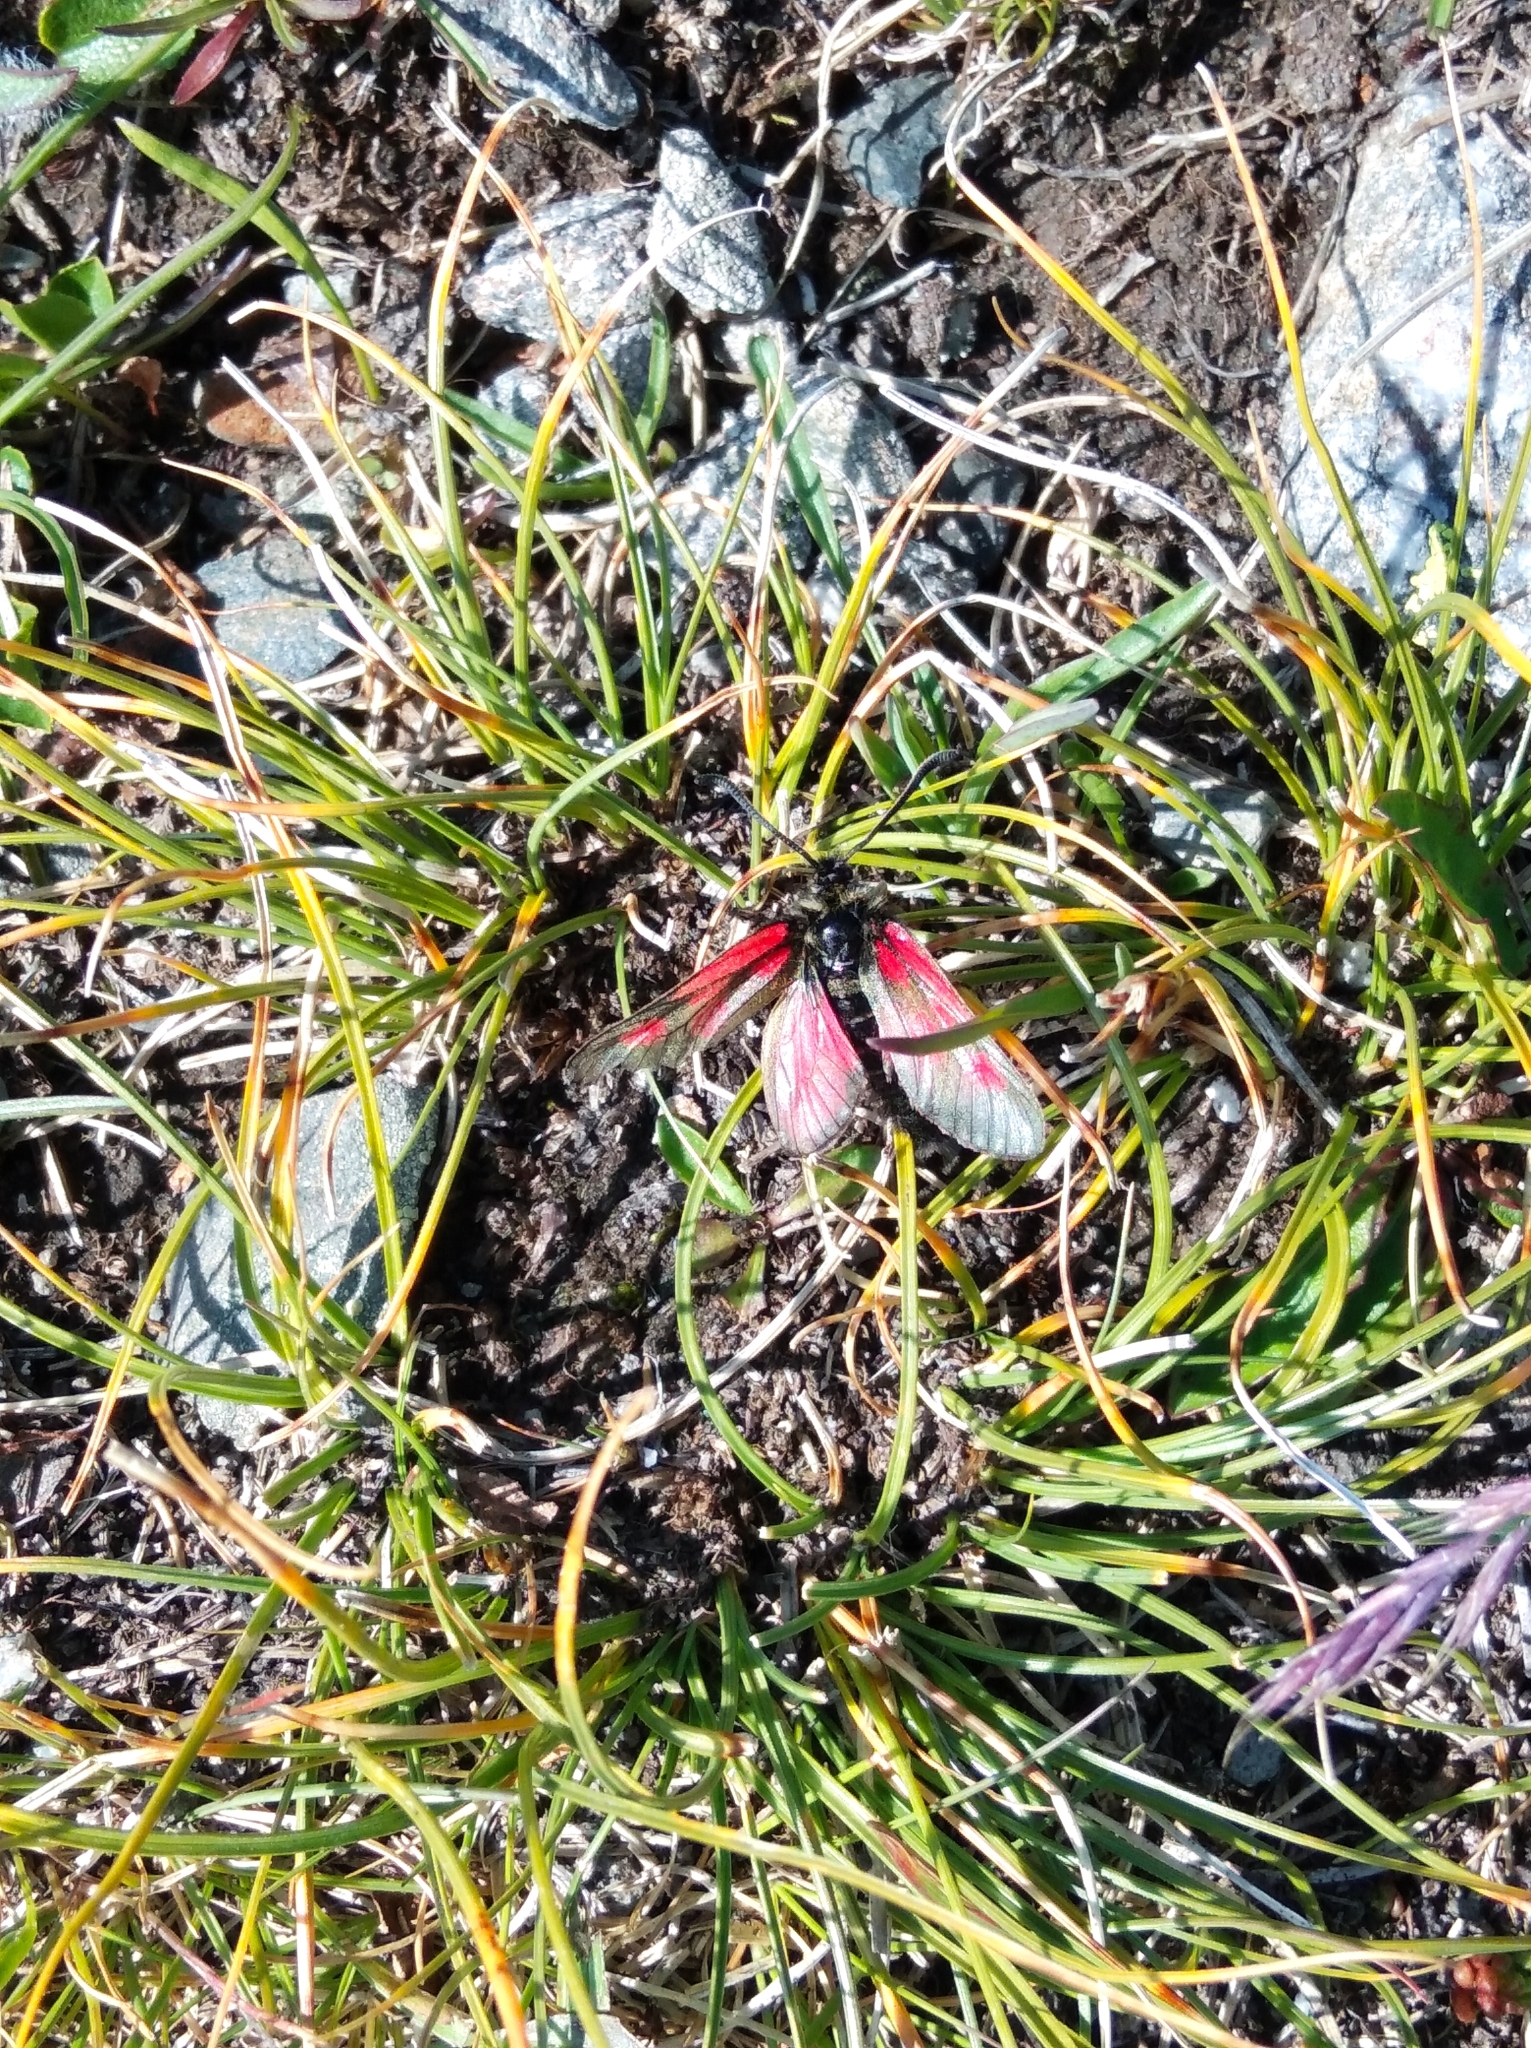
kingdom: Animalia
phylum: Arthropoda
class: Insecta
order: Lepidoptera
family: Zygaenidae
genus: Zygaena
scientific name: Zygaena exulans
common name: Scotch burnet
